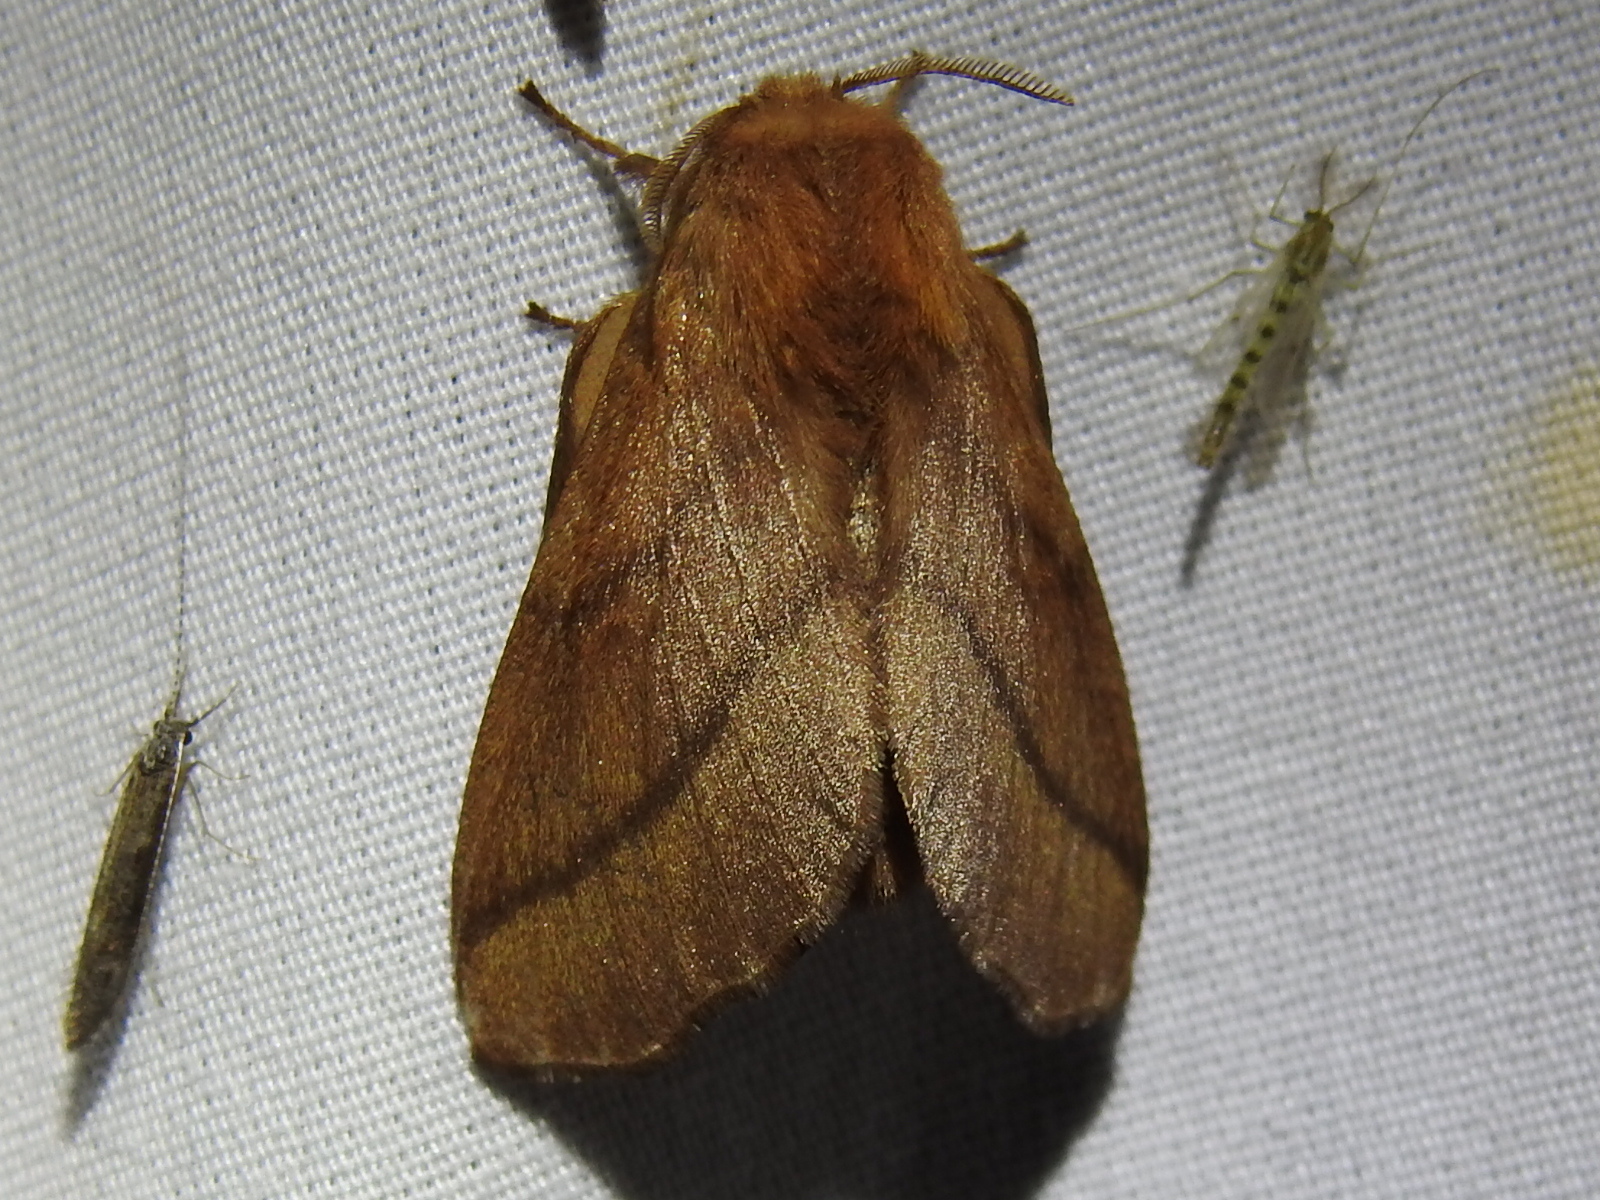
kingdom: Animalia
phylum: Arthropoda
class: Insecta
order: Lepidoptera
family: Lasiocampidae
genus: Malacosoma
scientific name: Malacosoma disstria
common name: Forest tent caterpillar
